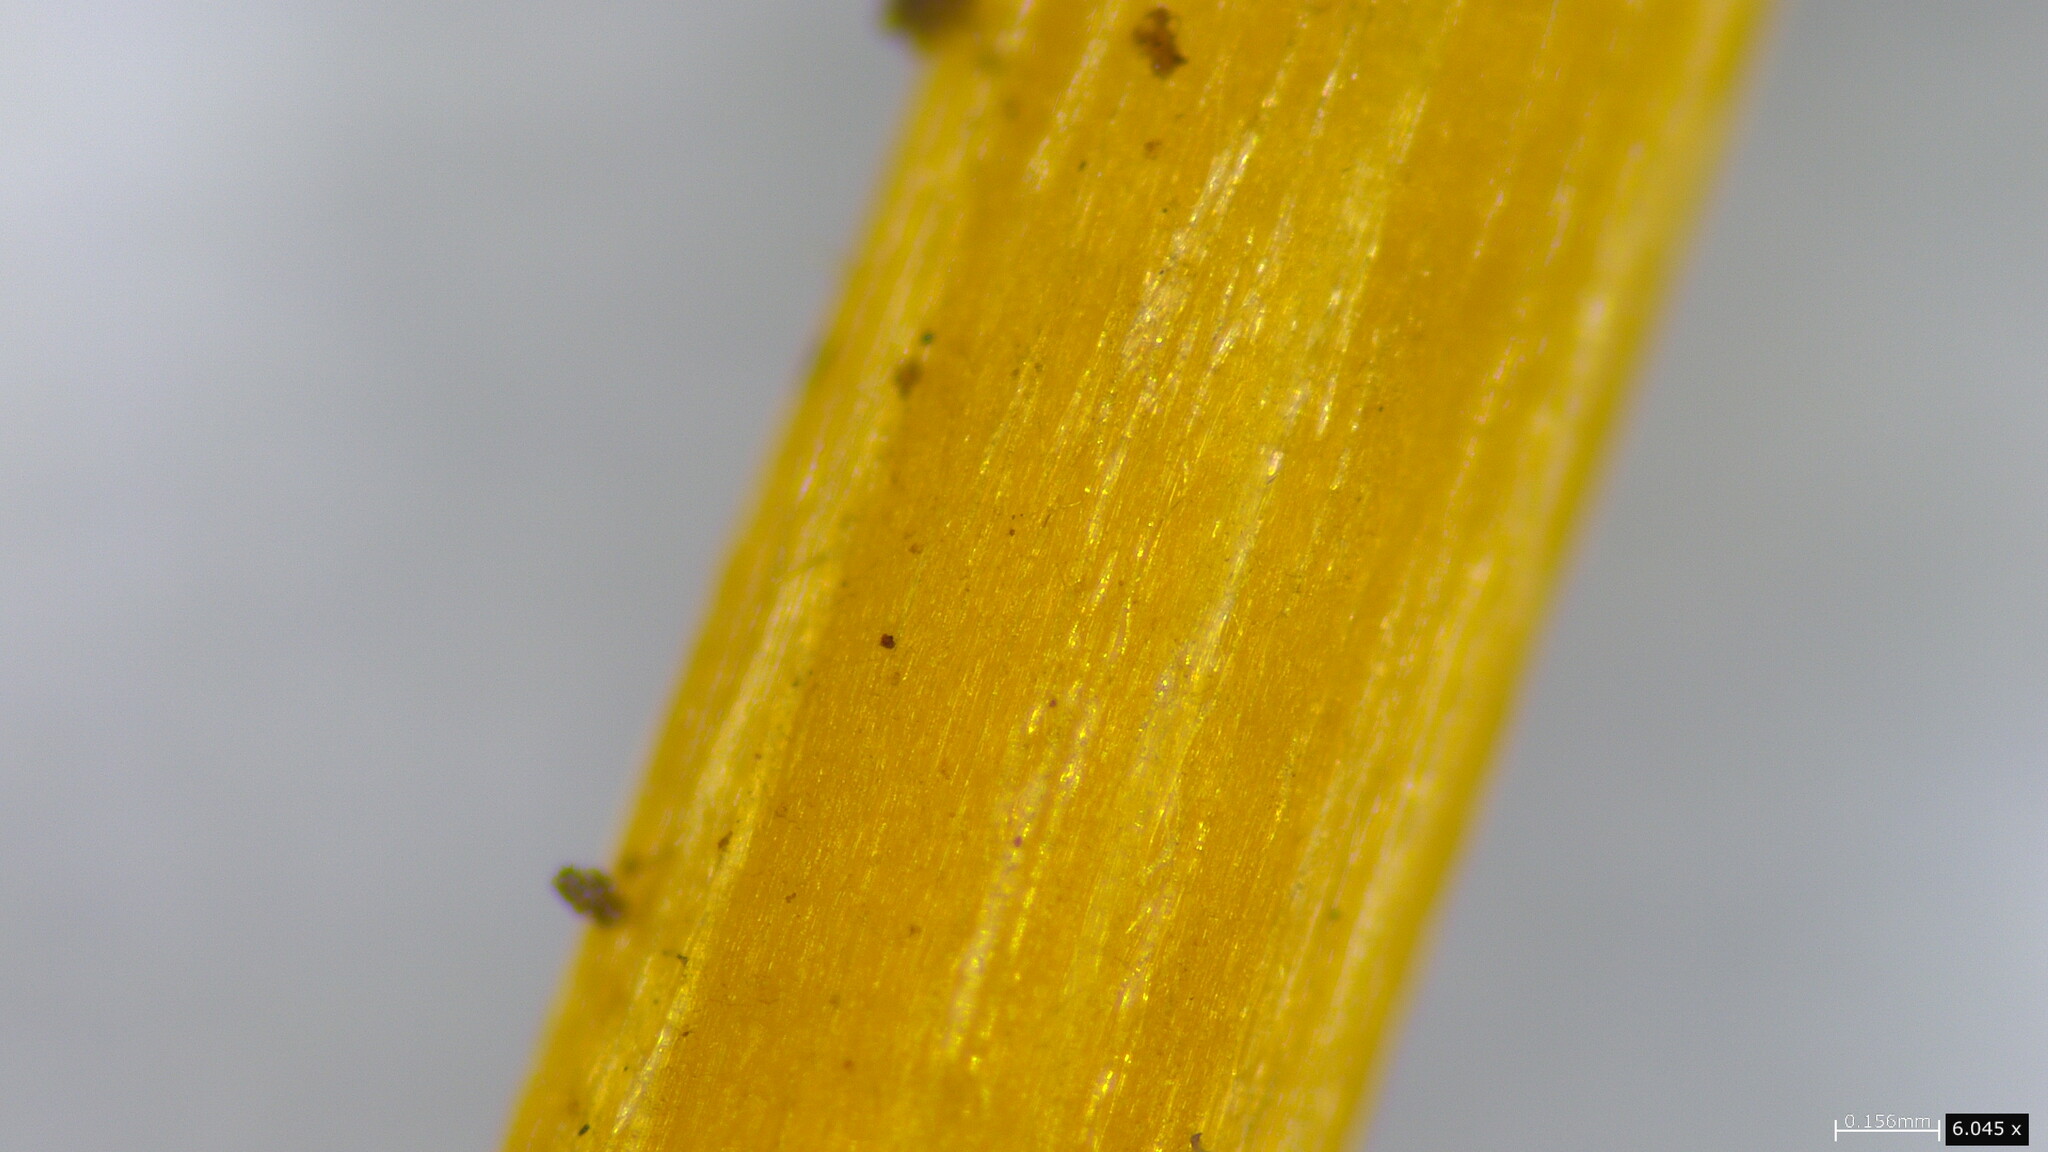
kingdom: Fungi
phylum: Basidiomycota
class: Agaricomycetes
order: Agaricales
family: Pluteaceae
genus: Pluteus
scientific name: Pluteus aurantiorugosus
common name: Flame shield
